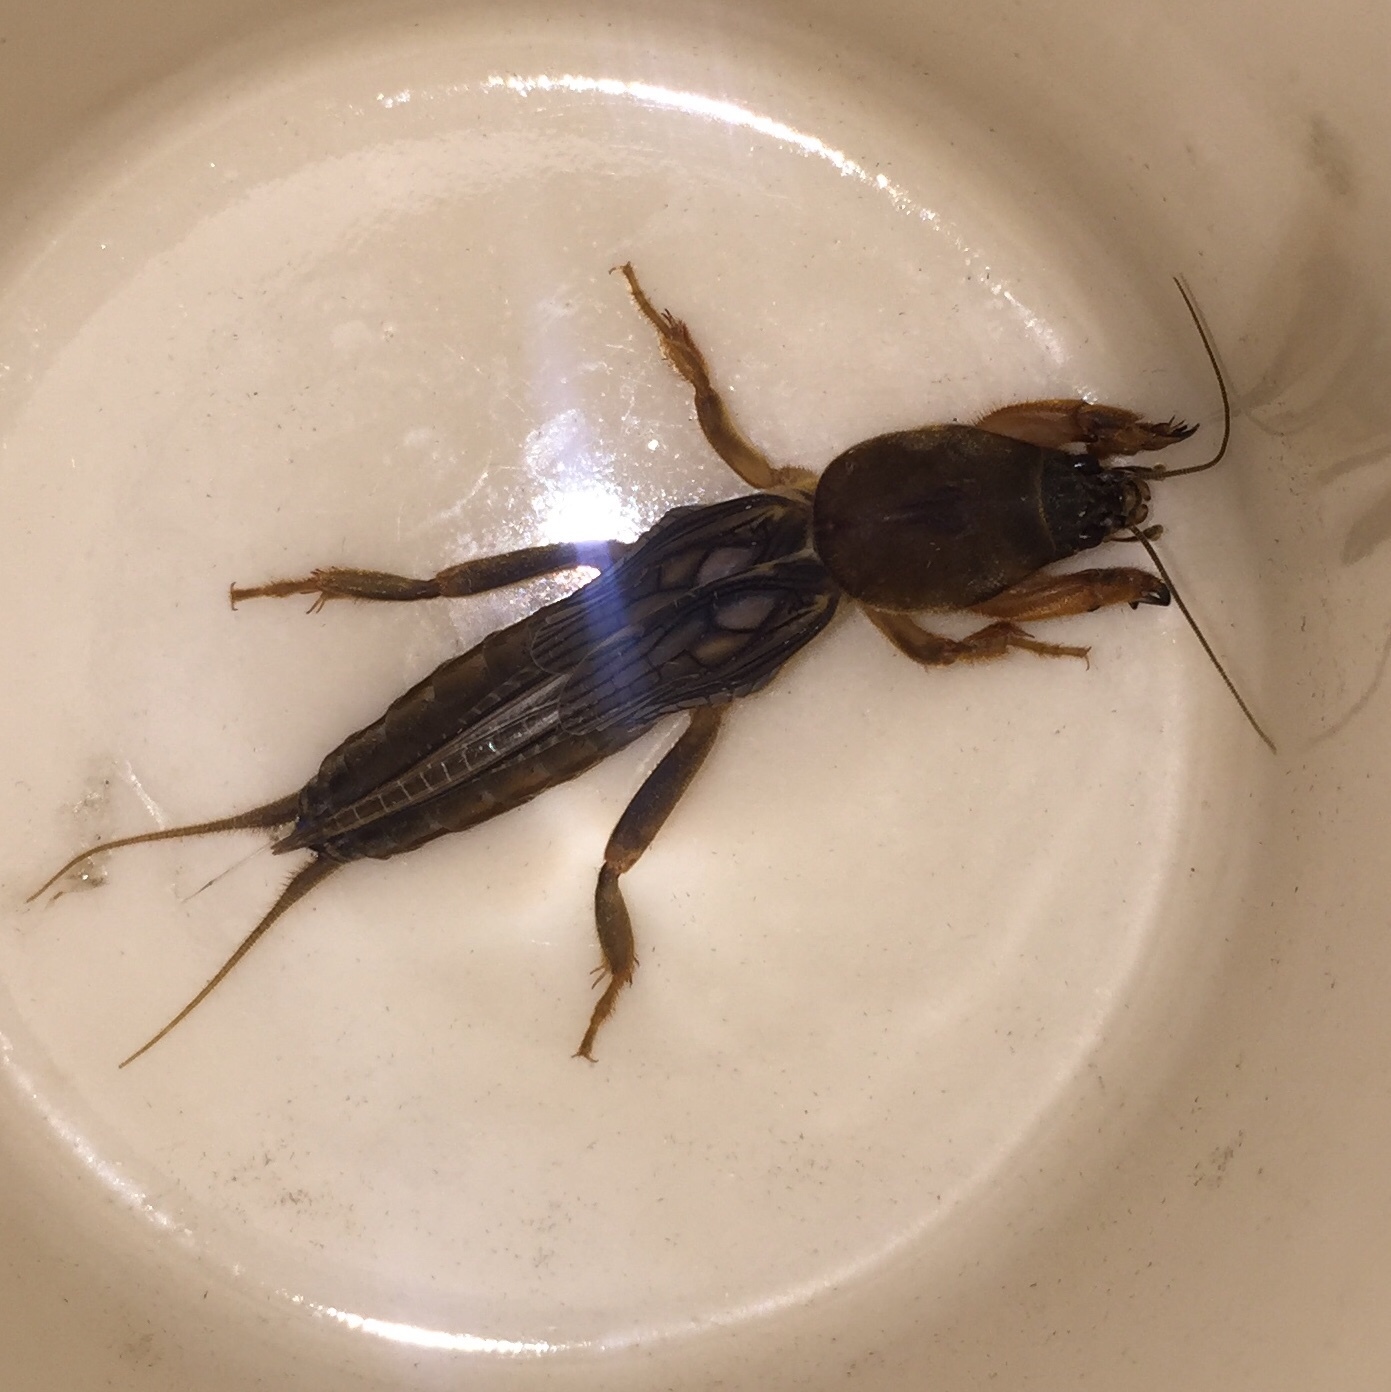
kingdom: Animalia
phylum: Arthropoda
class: Insecta
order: Orthoptera
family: Gryllotalpidae
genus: Neocurtilla
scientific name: Neocurtilla hexadactyla
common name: Northern mole cricket
